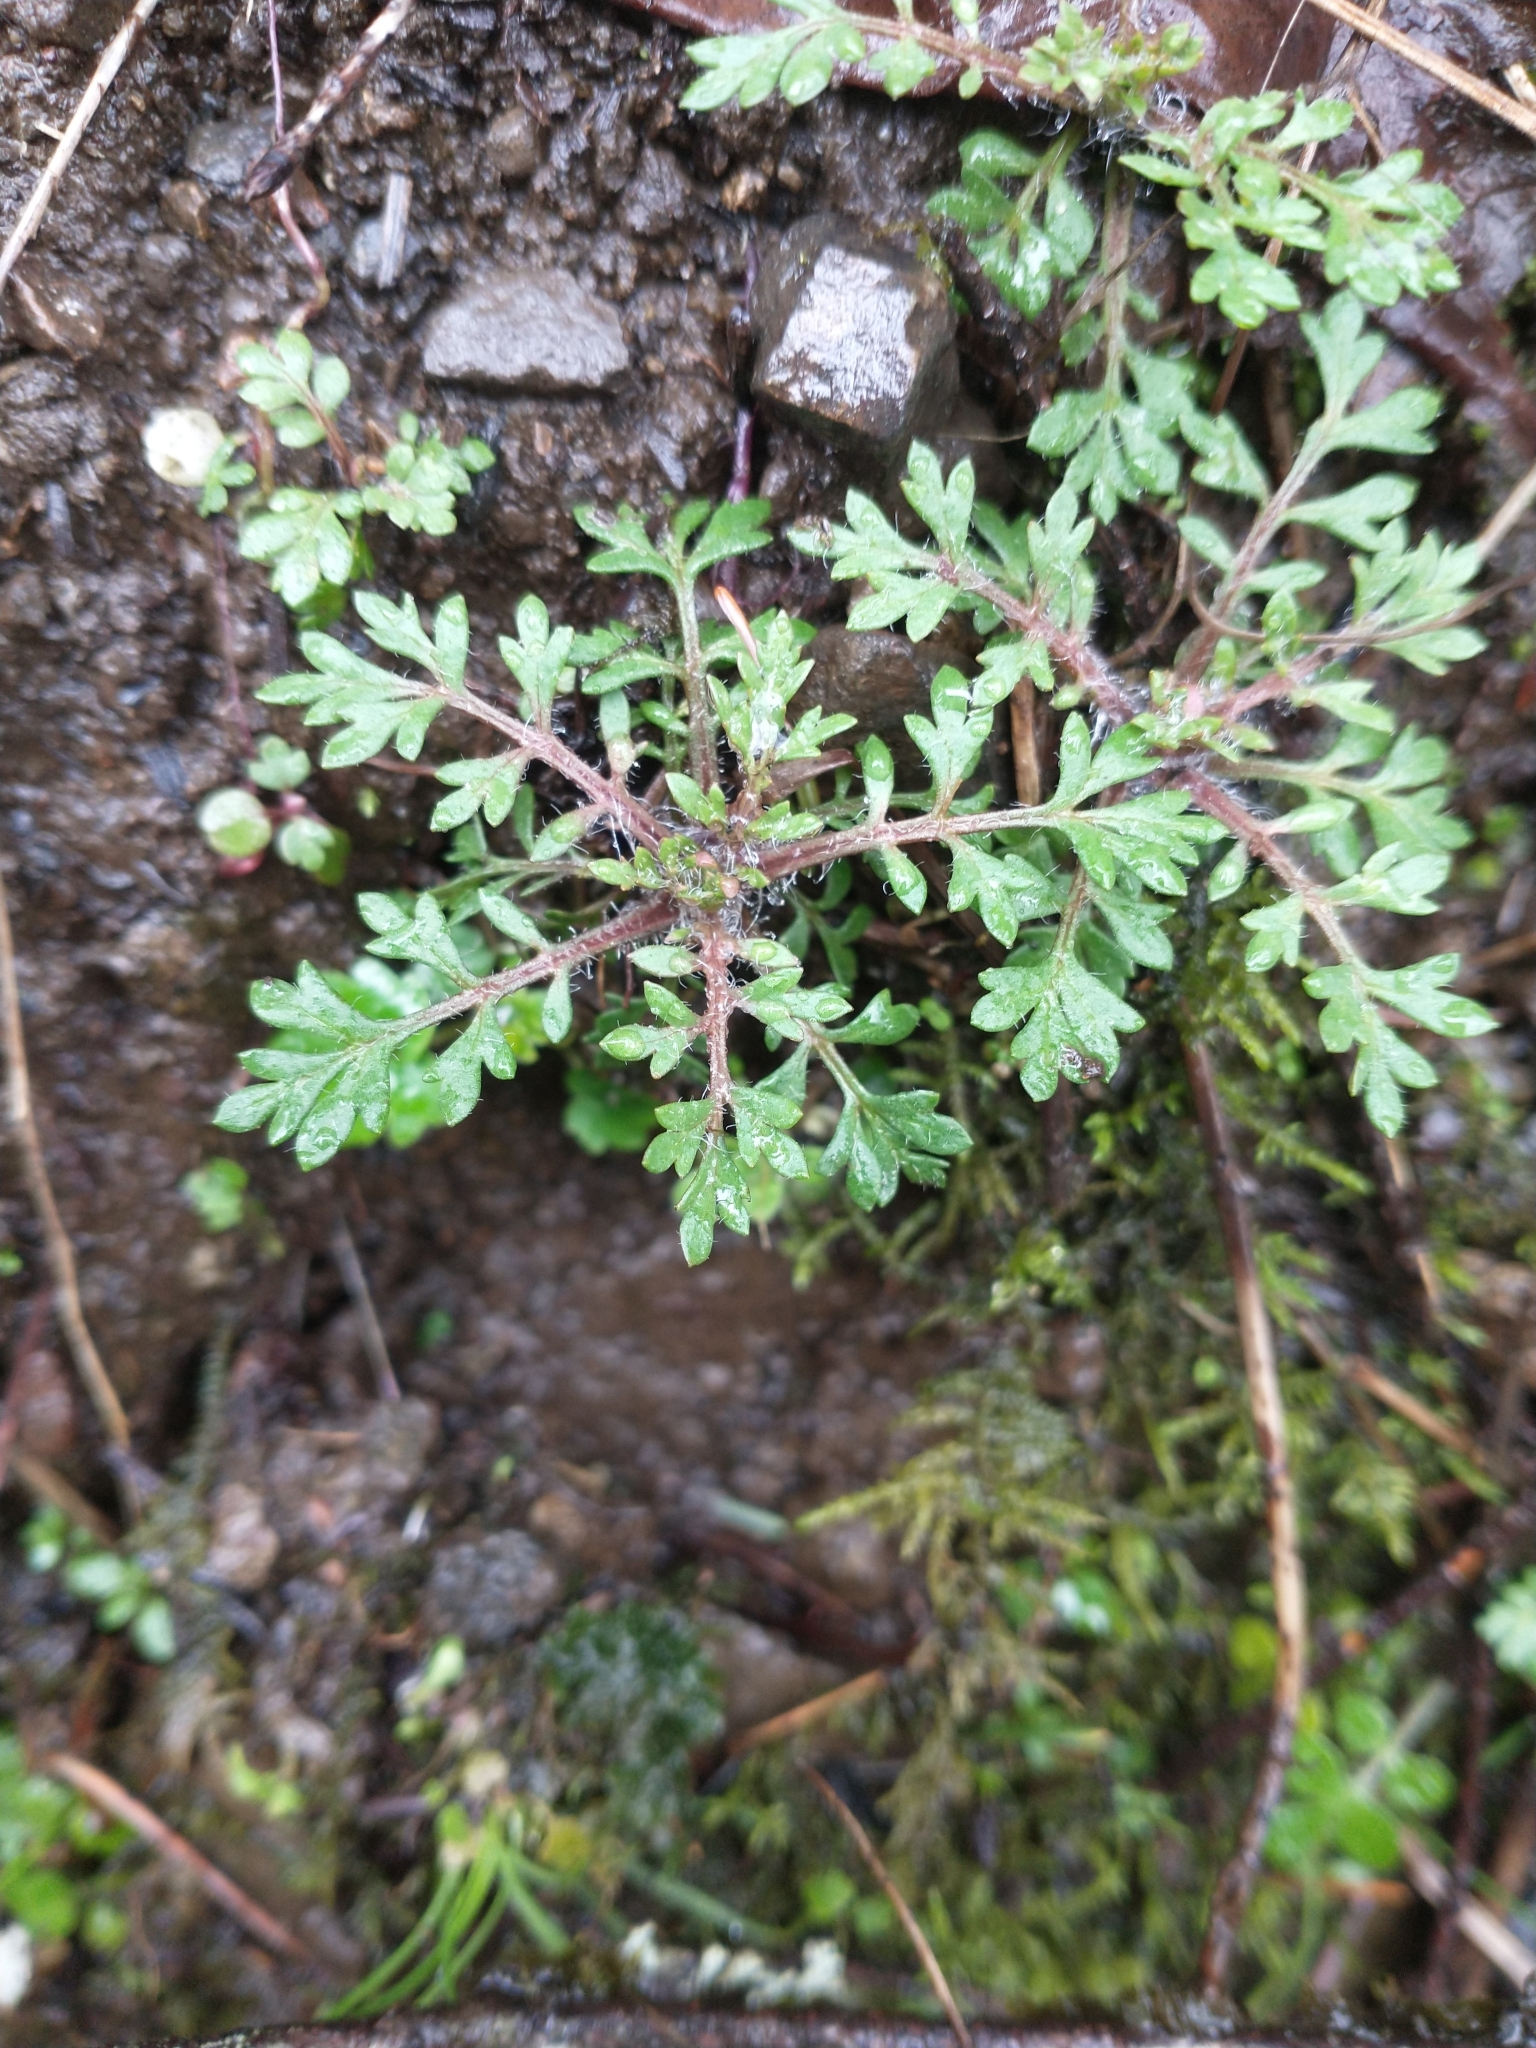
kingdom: Plantae
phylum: Tracheophyta
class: Magnoliopsida
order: Ericales
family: Polemoniaceae
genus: Collomia
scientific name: Collomia heterophylla
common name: Variable-leaved collomia
